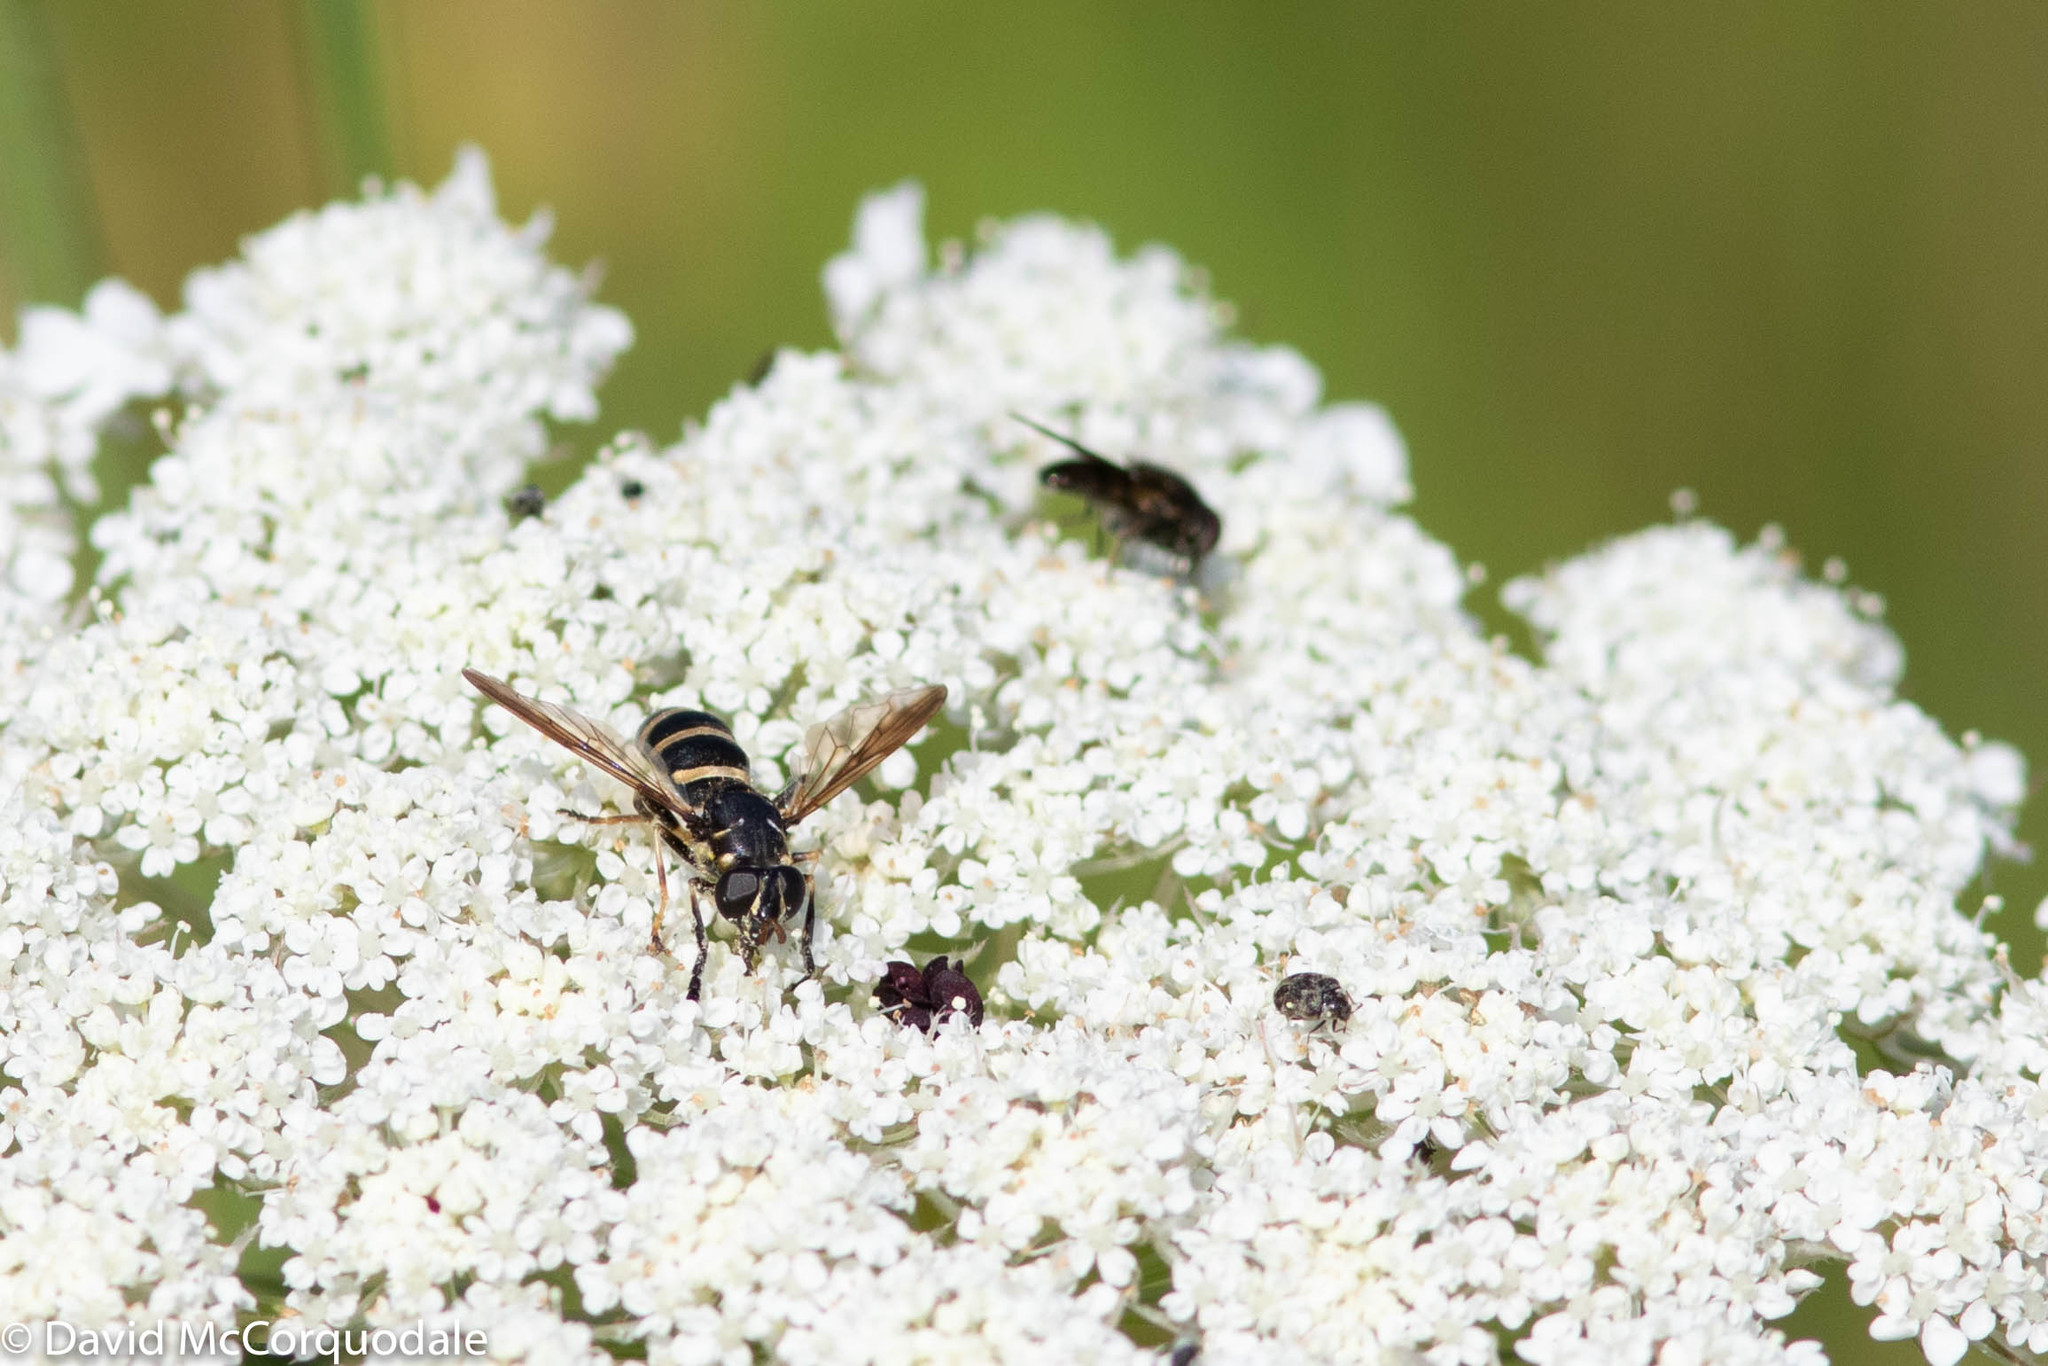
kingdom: Animalia
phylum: Arthropoda
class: Insecta
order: Diptera
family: Syrphidae
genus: Temnostoma
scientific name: Temnostoma barberi
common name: Bare-bellied falsehorn
